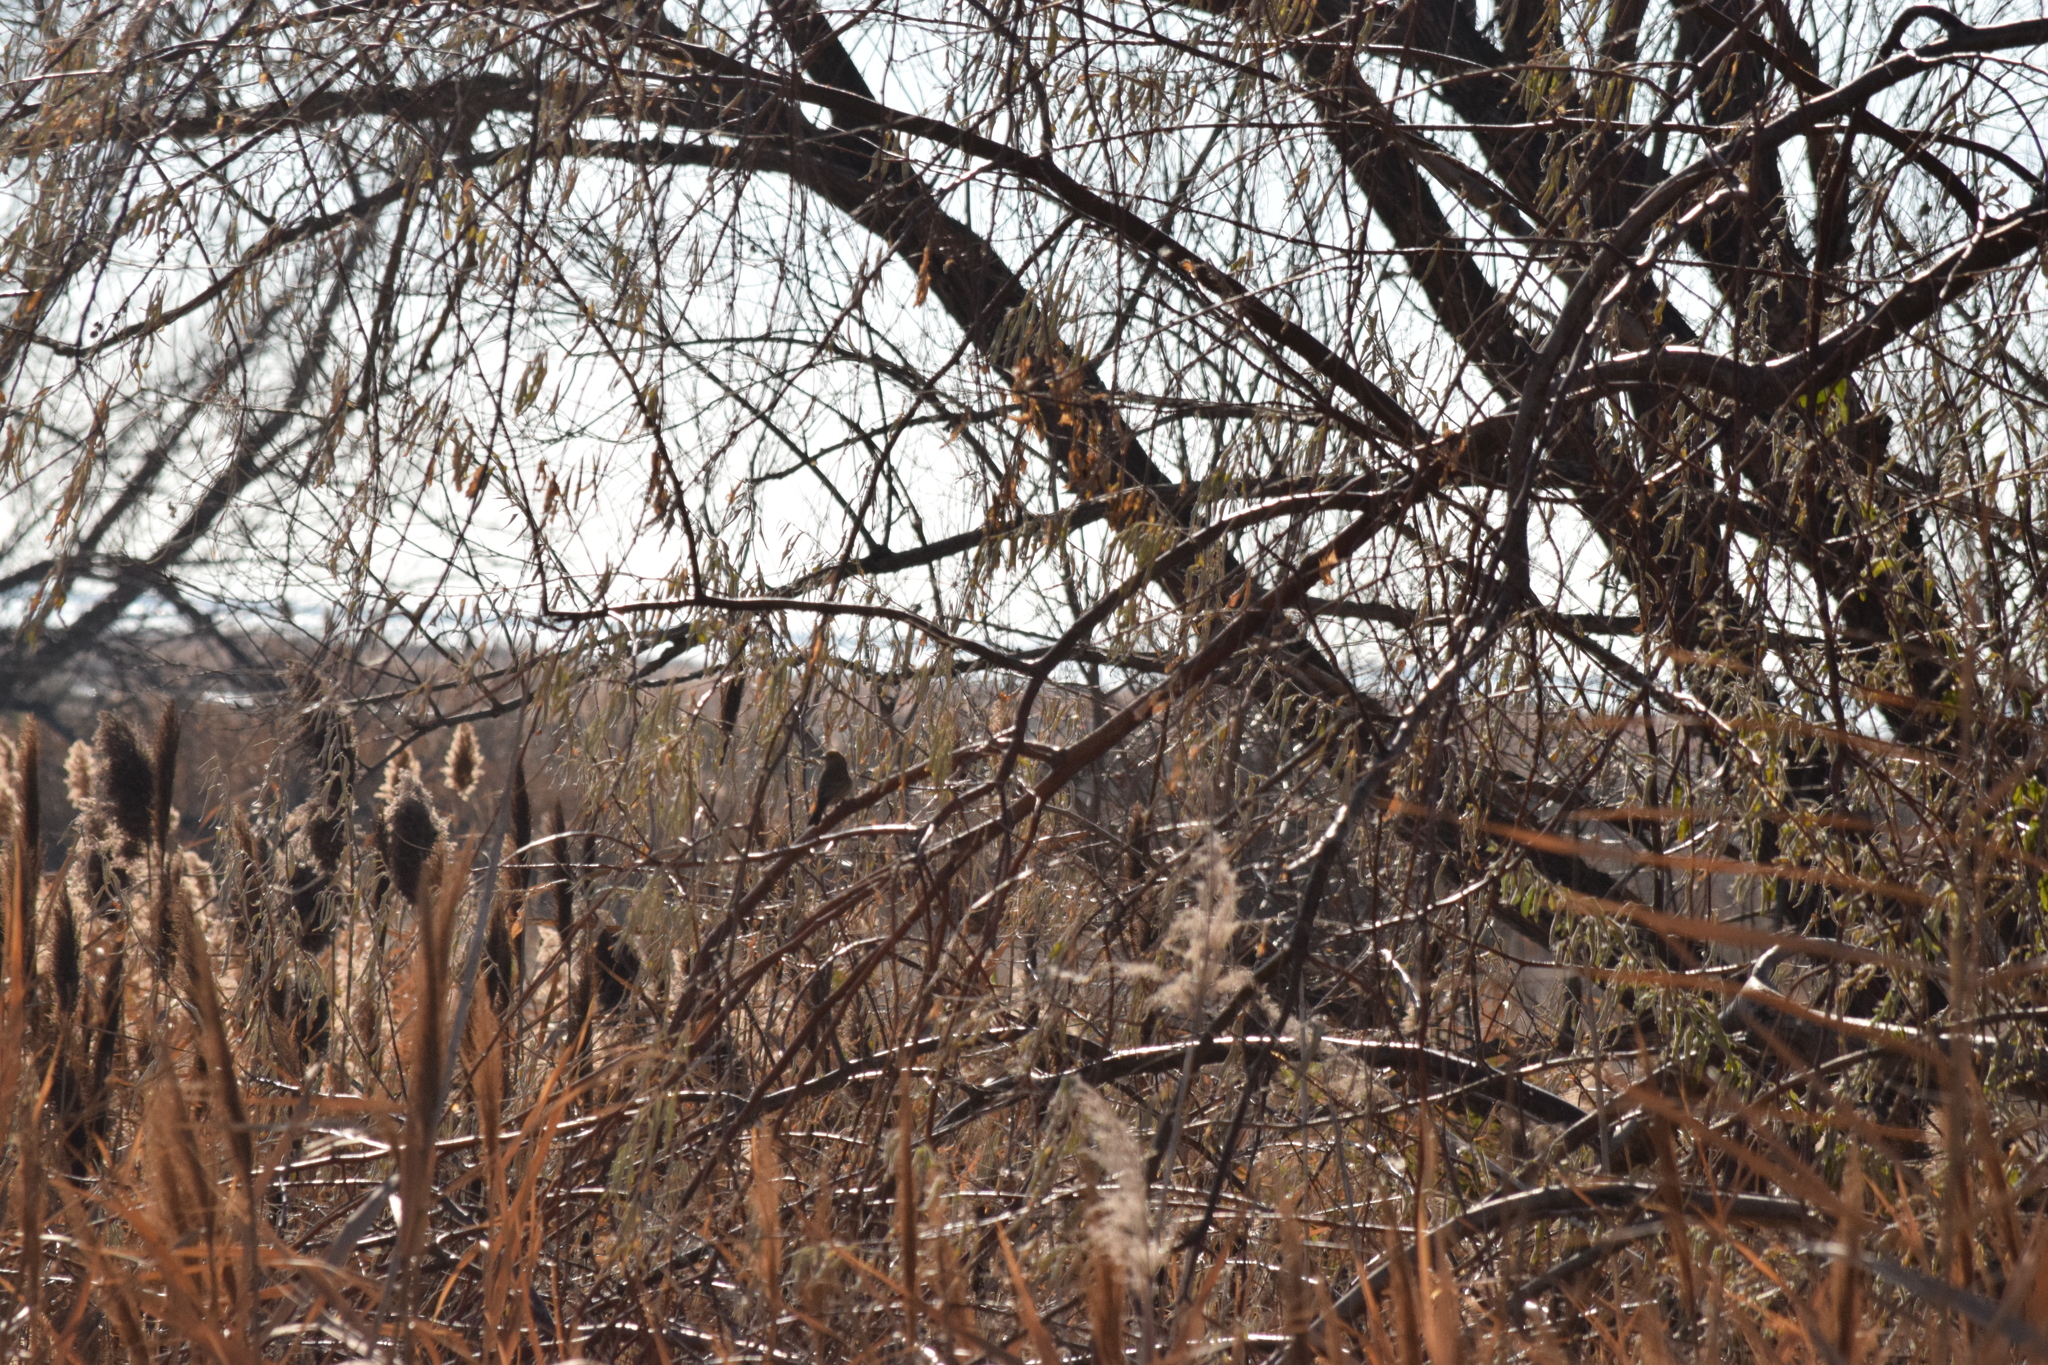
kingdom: Animalia
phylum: Chordata
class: Aves
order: Passeriformes
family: Fringillidae
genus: Haemorhous
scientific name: Haemorhous mexicanus
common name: House finch
